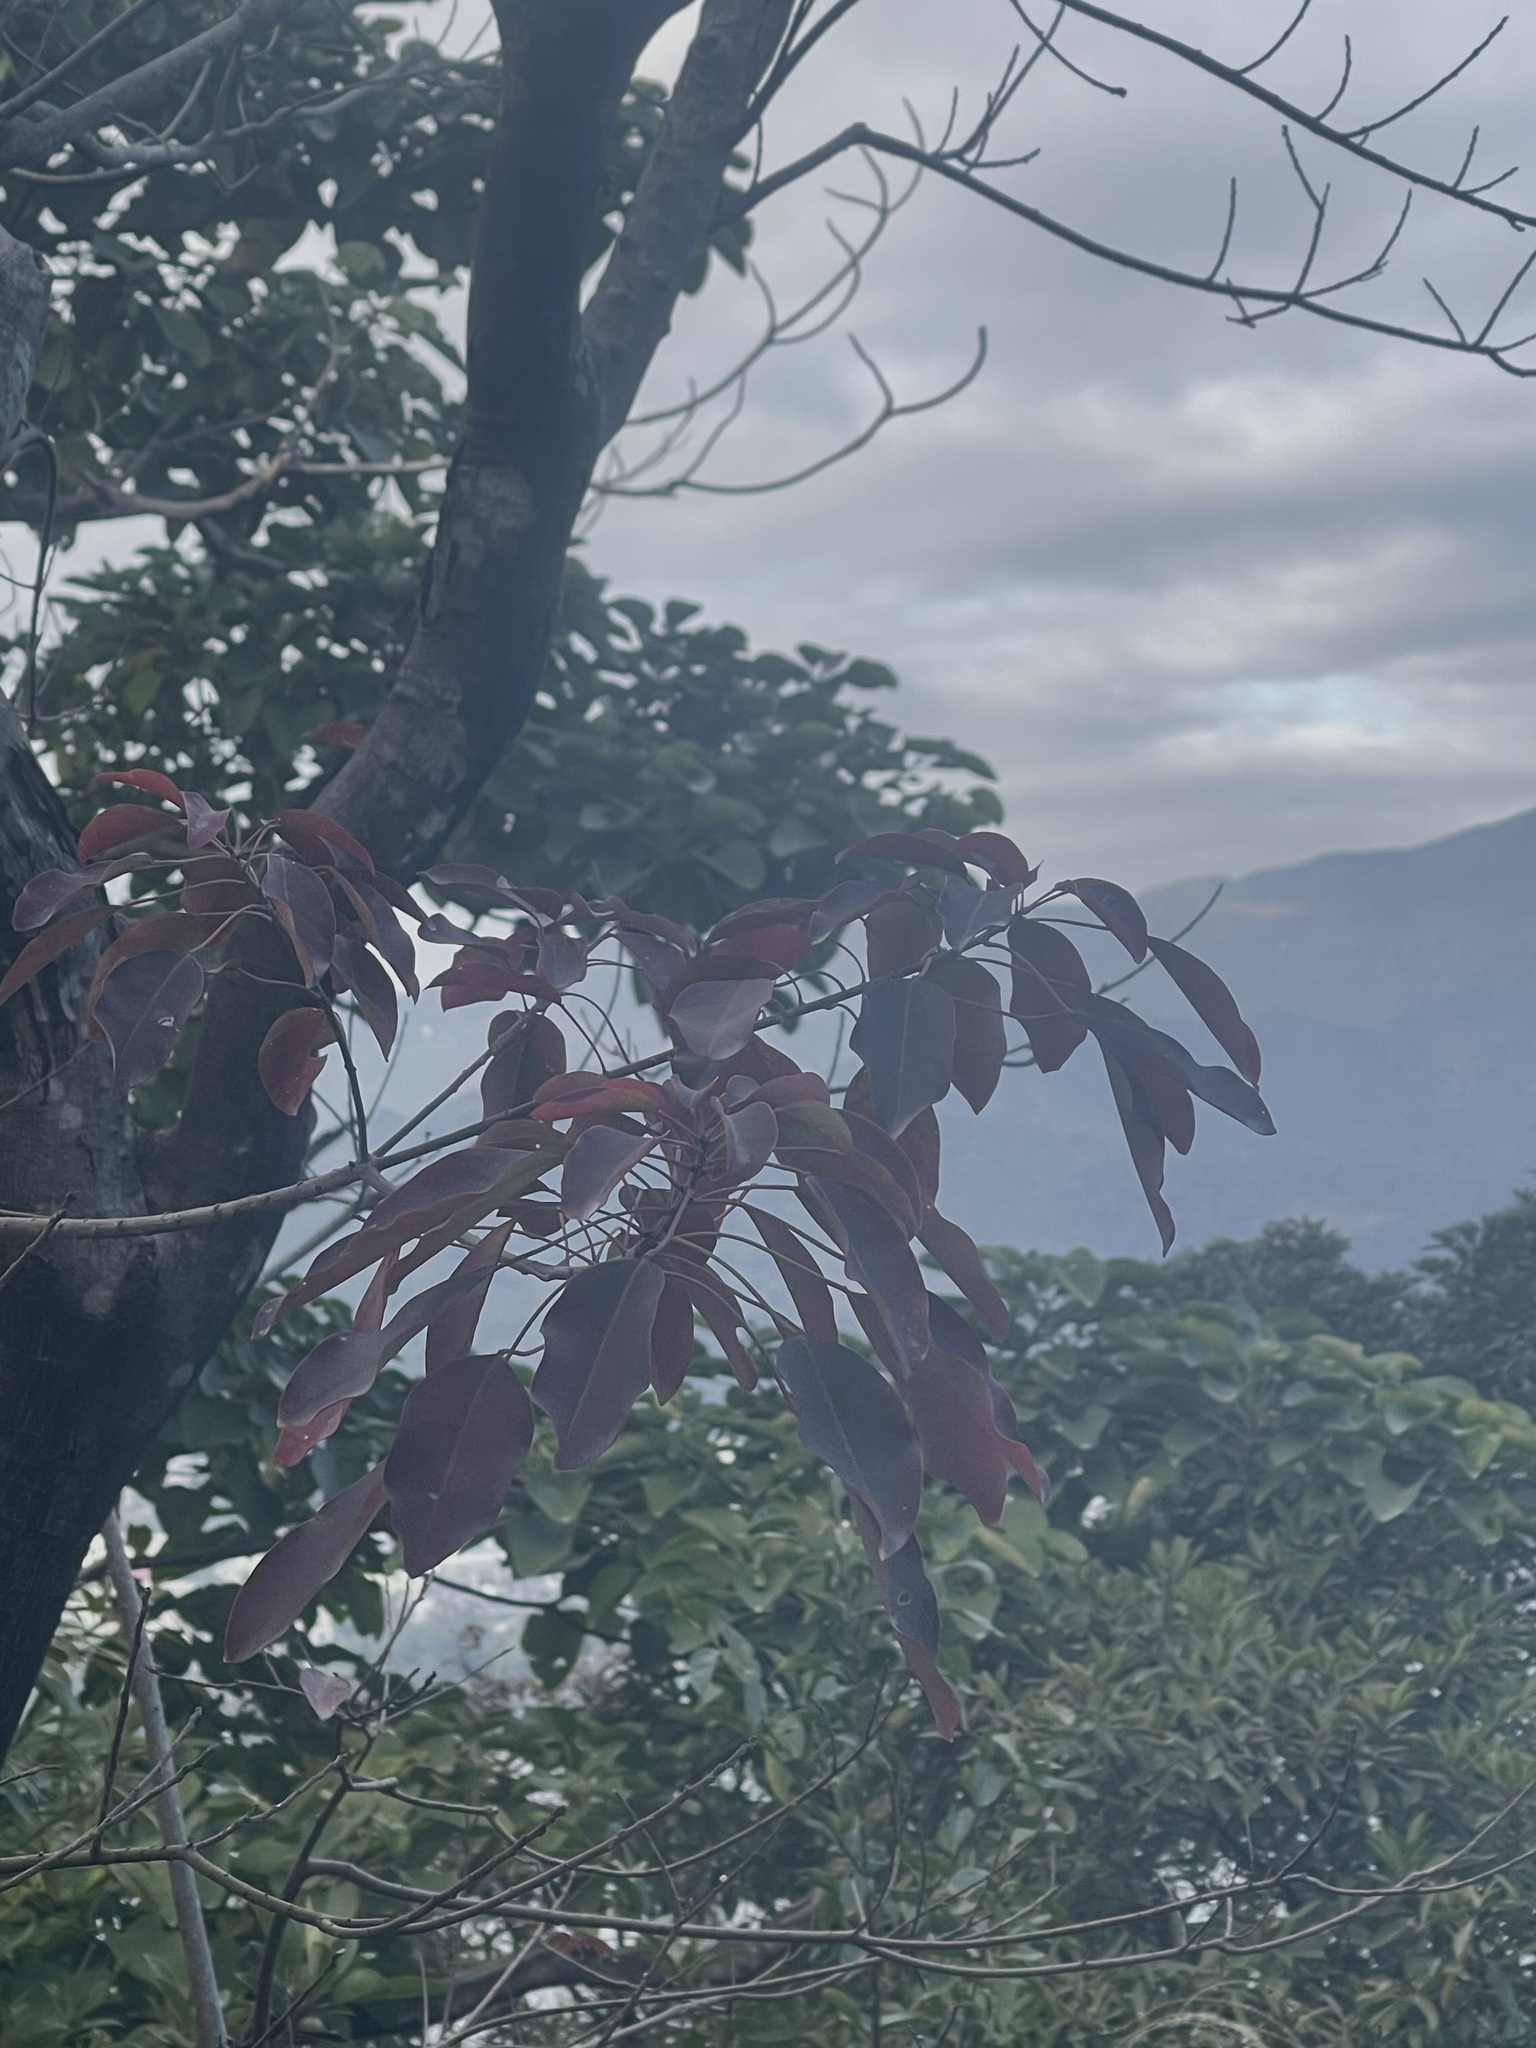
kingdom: Plantae
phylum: Tracheophyta
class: Magnoliopsida
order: Malpighiales
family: Euphorbiaceae
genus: Triadica
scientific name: Triadica cochinchinensis
